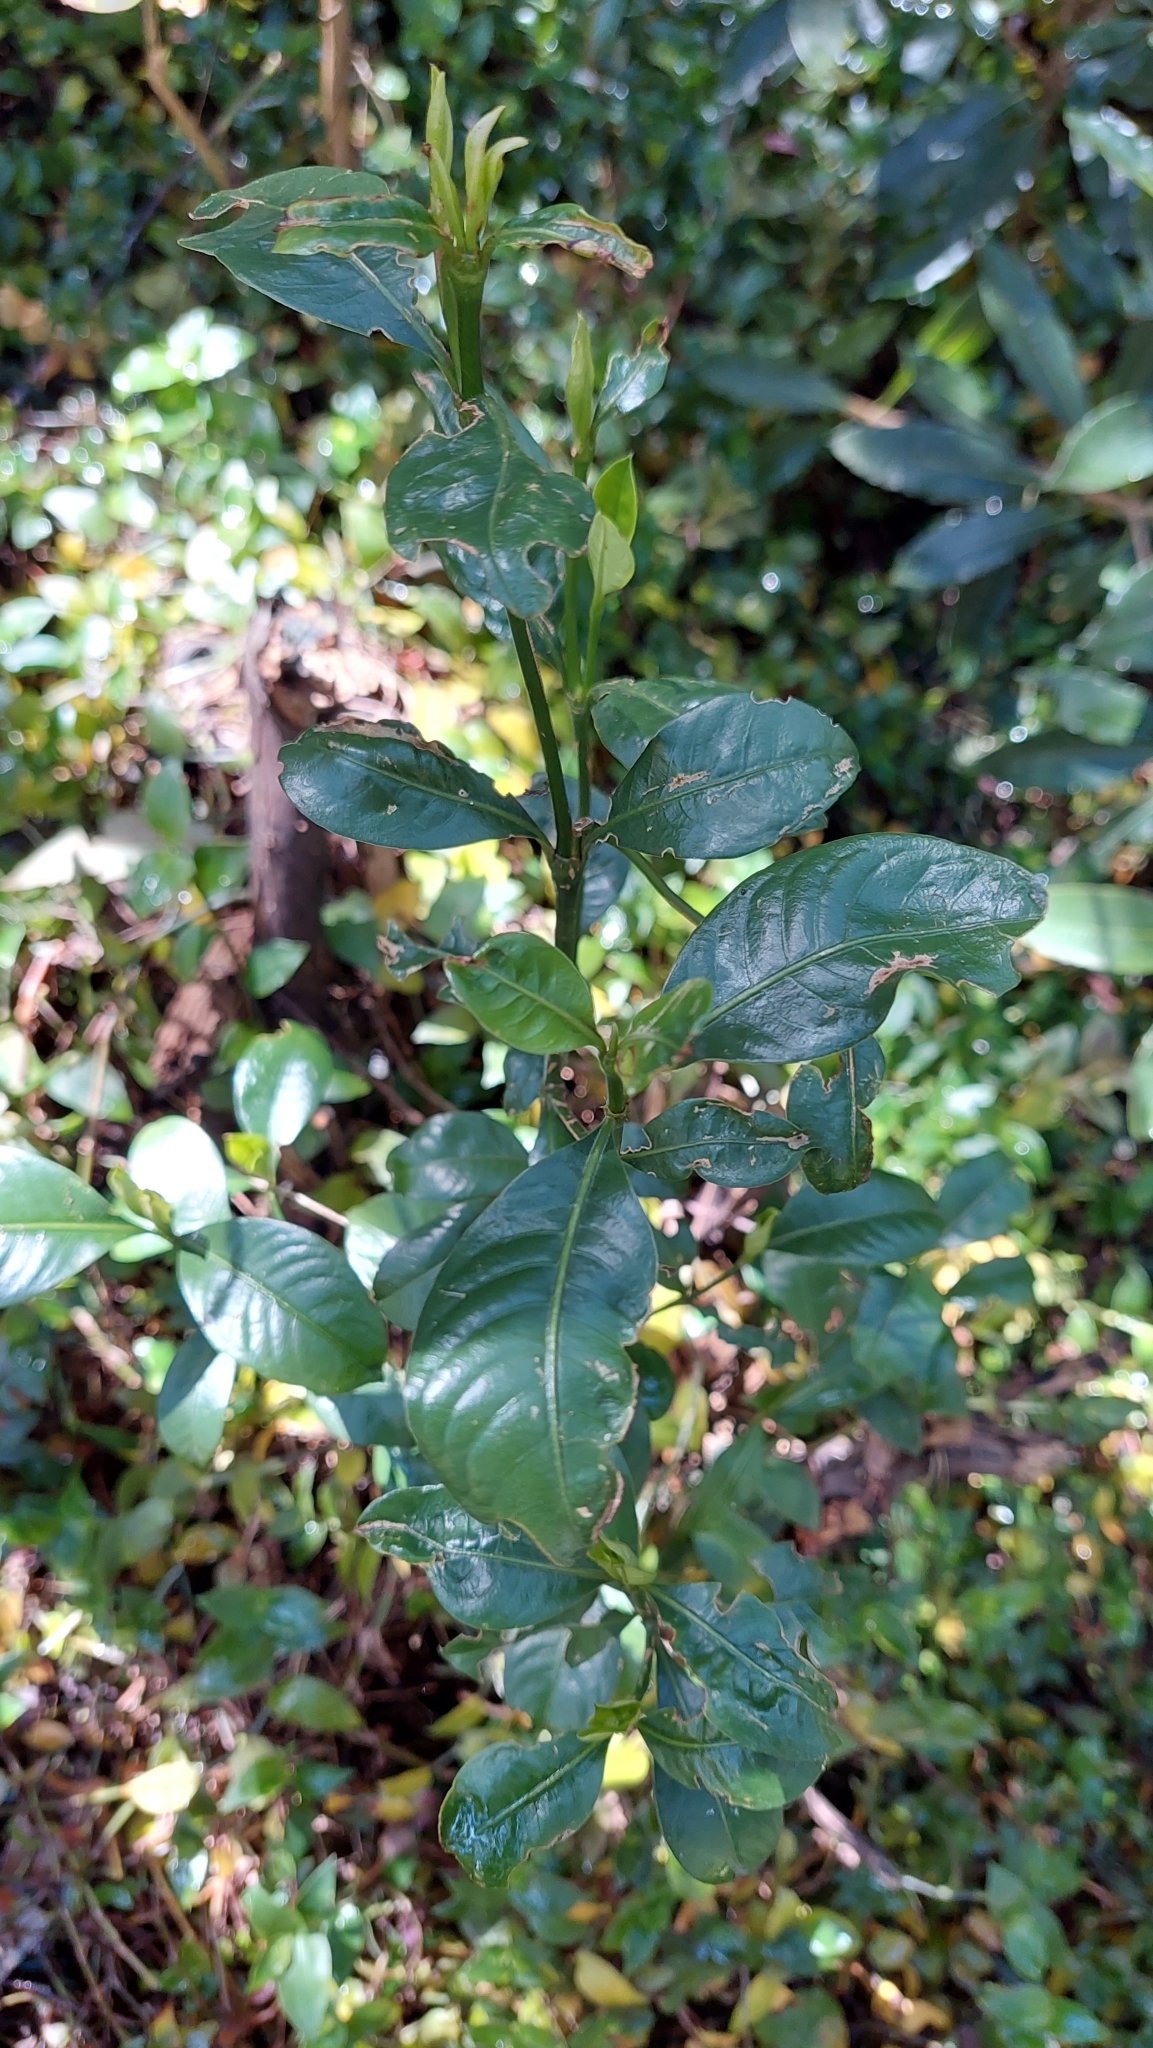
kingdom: Plantae
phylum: Tracheophyta
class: Magnoliopsida
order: Gentianales
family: Rubiaceae
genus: Palicourea
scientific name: Palicourea boqueronensis
